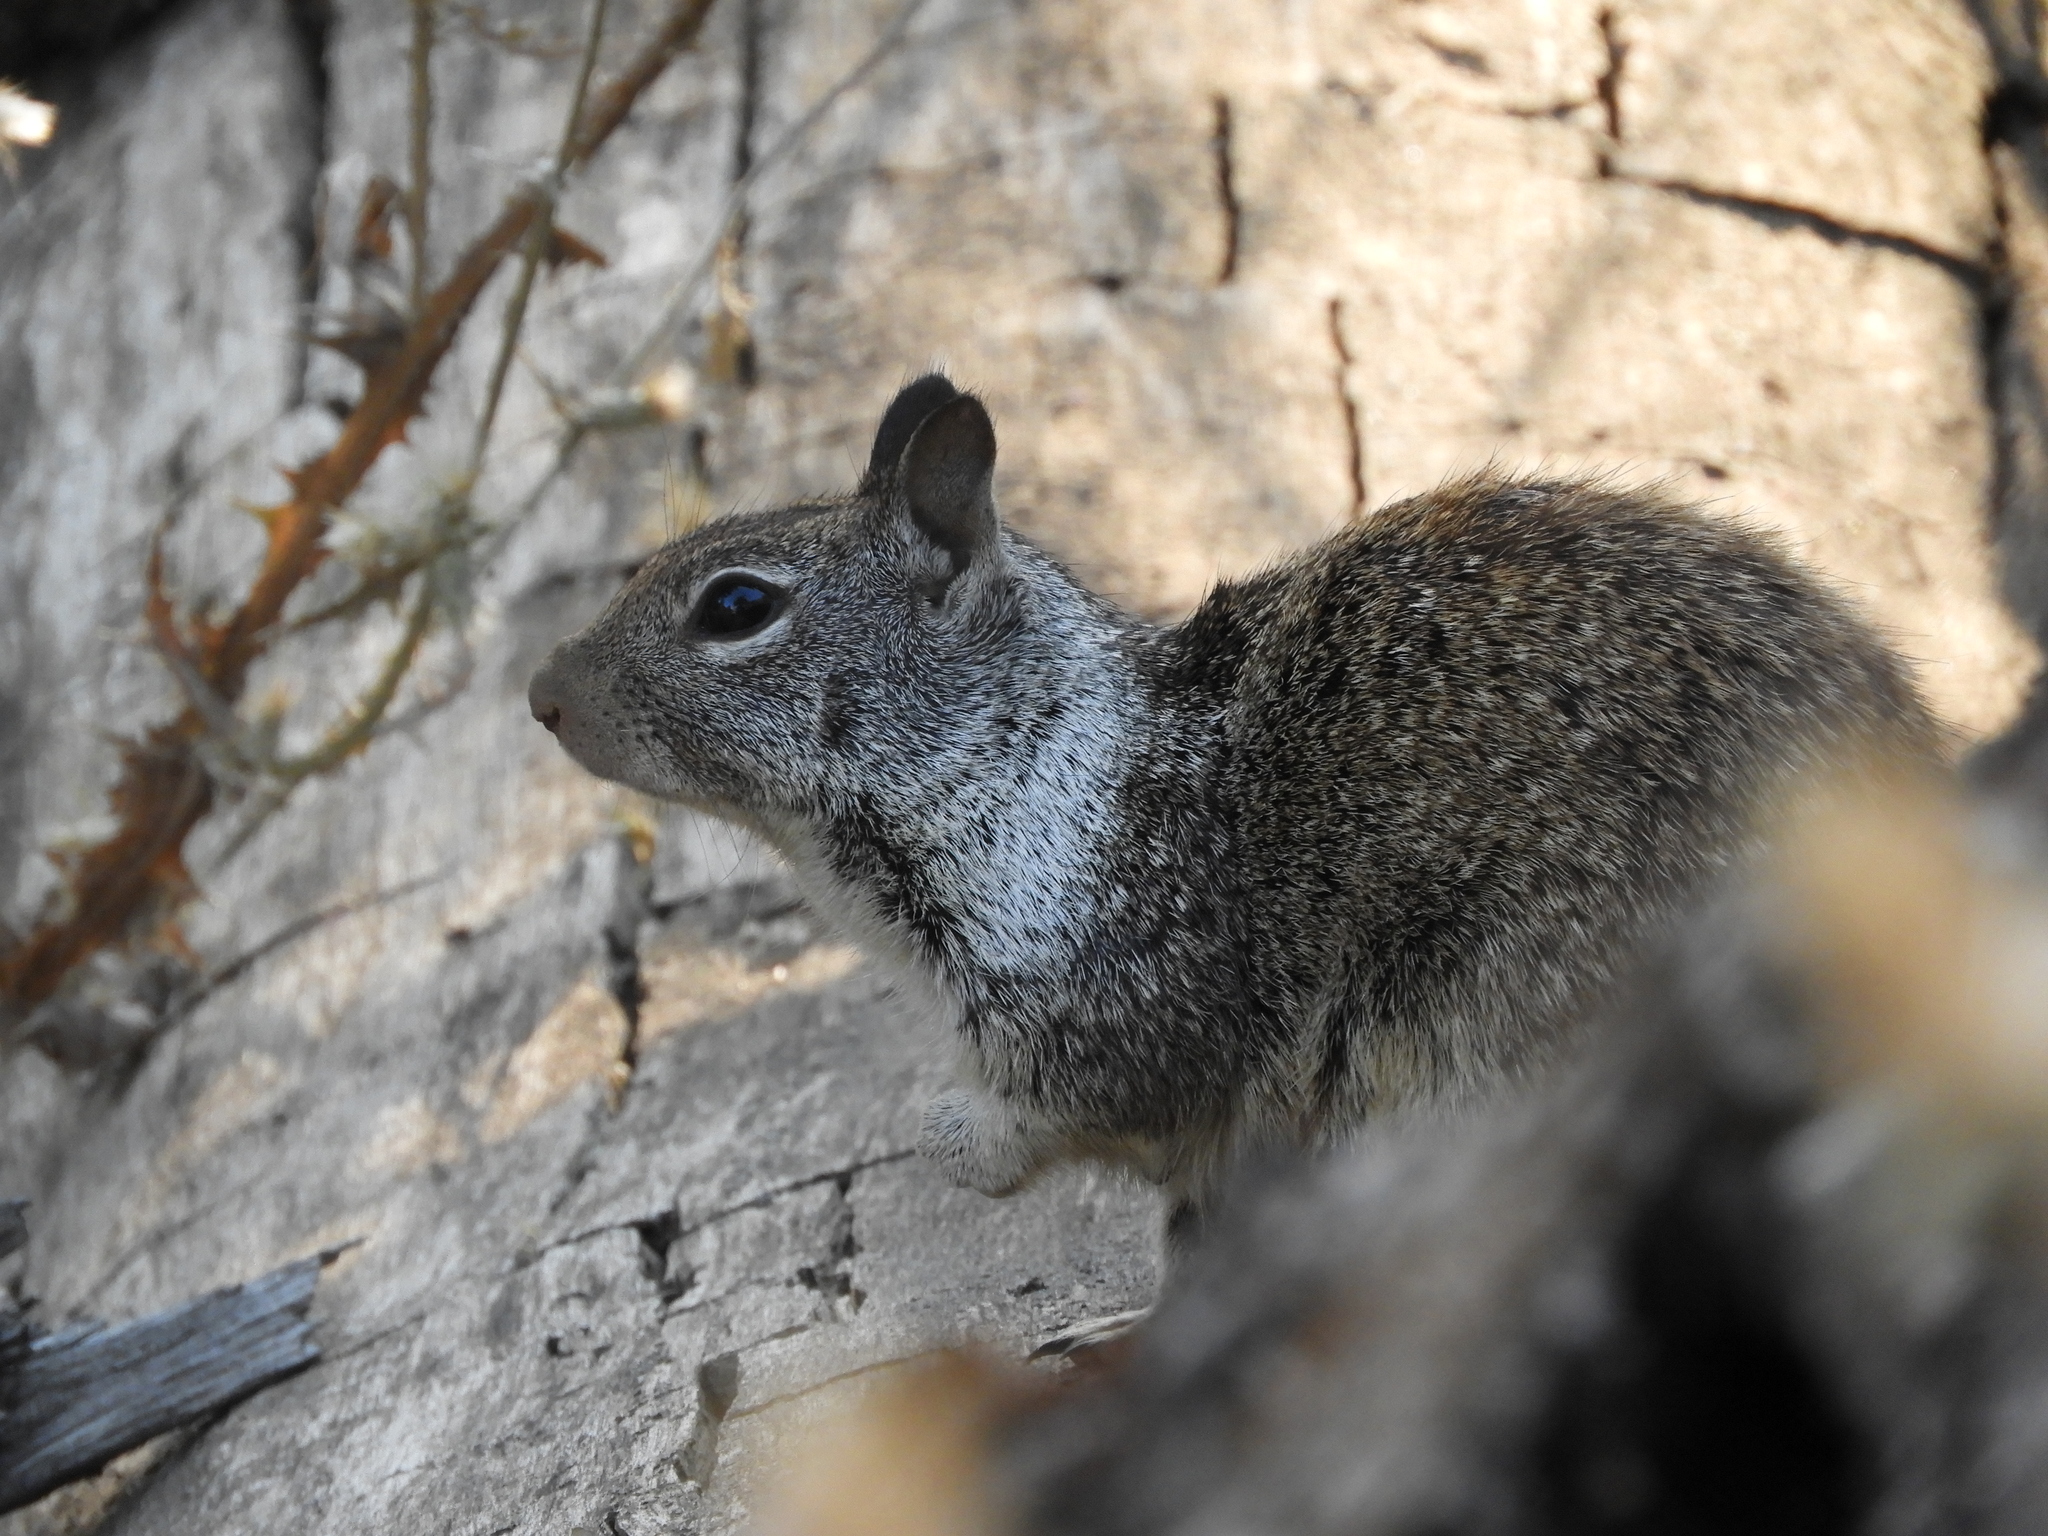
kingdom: Animalia
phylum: Chordata
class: Mammalia
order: Rodentia
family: Sciuridae
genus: Otospermophilus
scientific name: Otospermophilus beecheyi
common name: California ground squirrel
